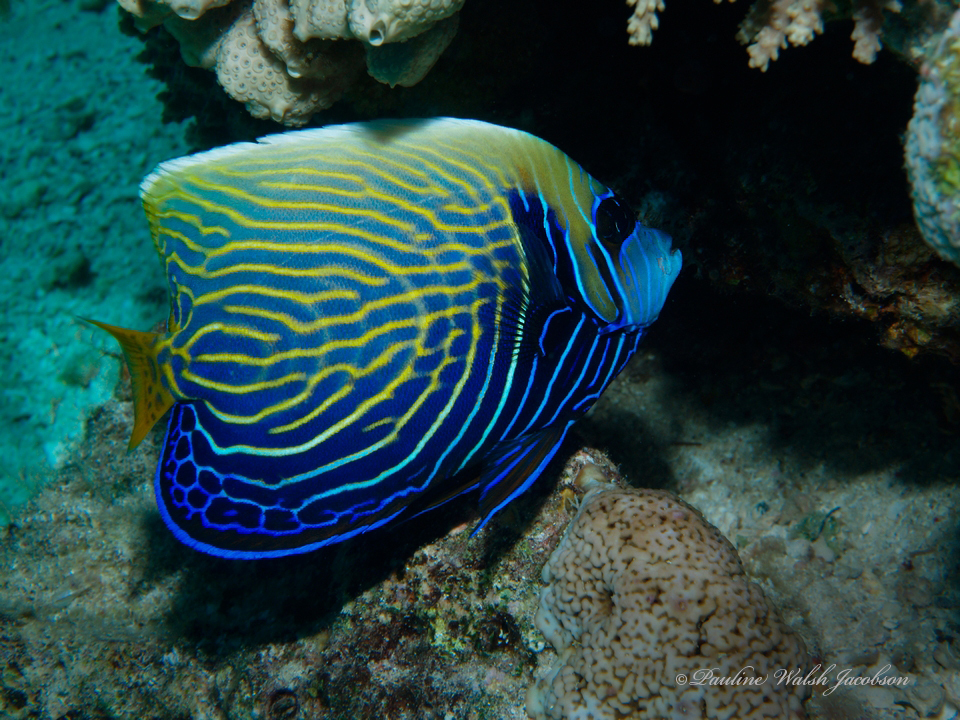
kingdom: Animalia
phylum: Chordata
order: Perciformes
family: Pomacanthidae
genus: Pomacanthus
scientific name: Pomacanthus imperator
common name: Emperor angelfish
